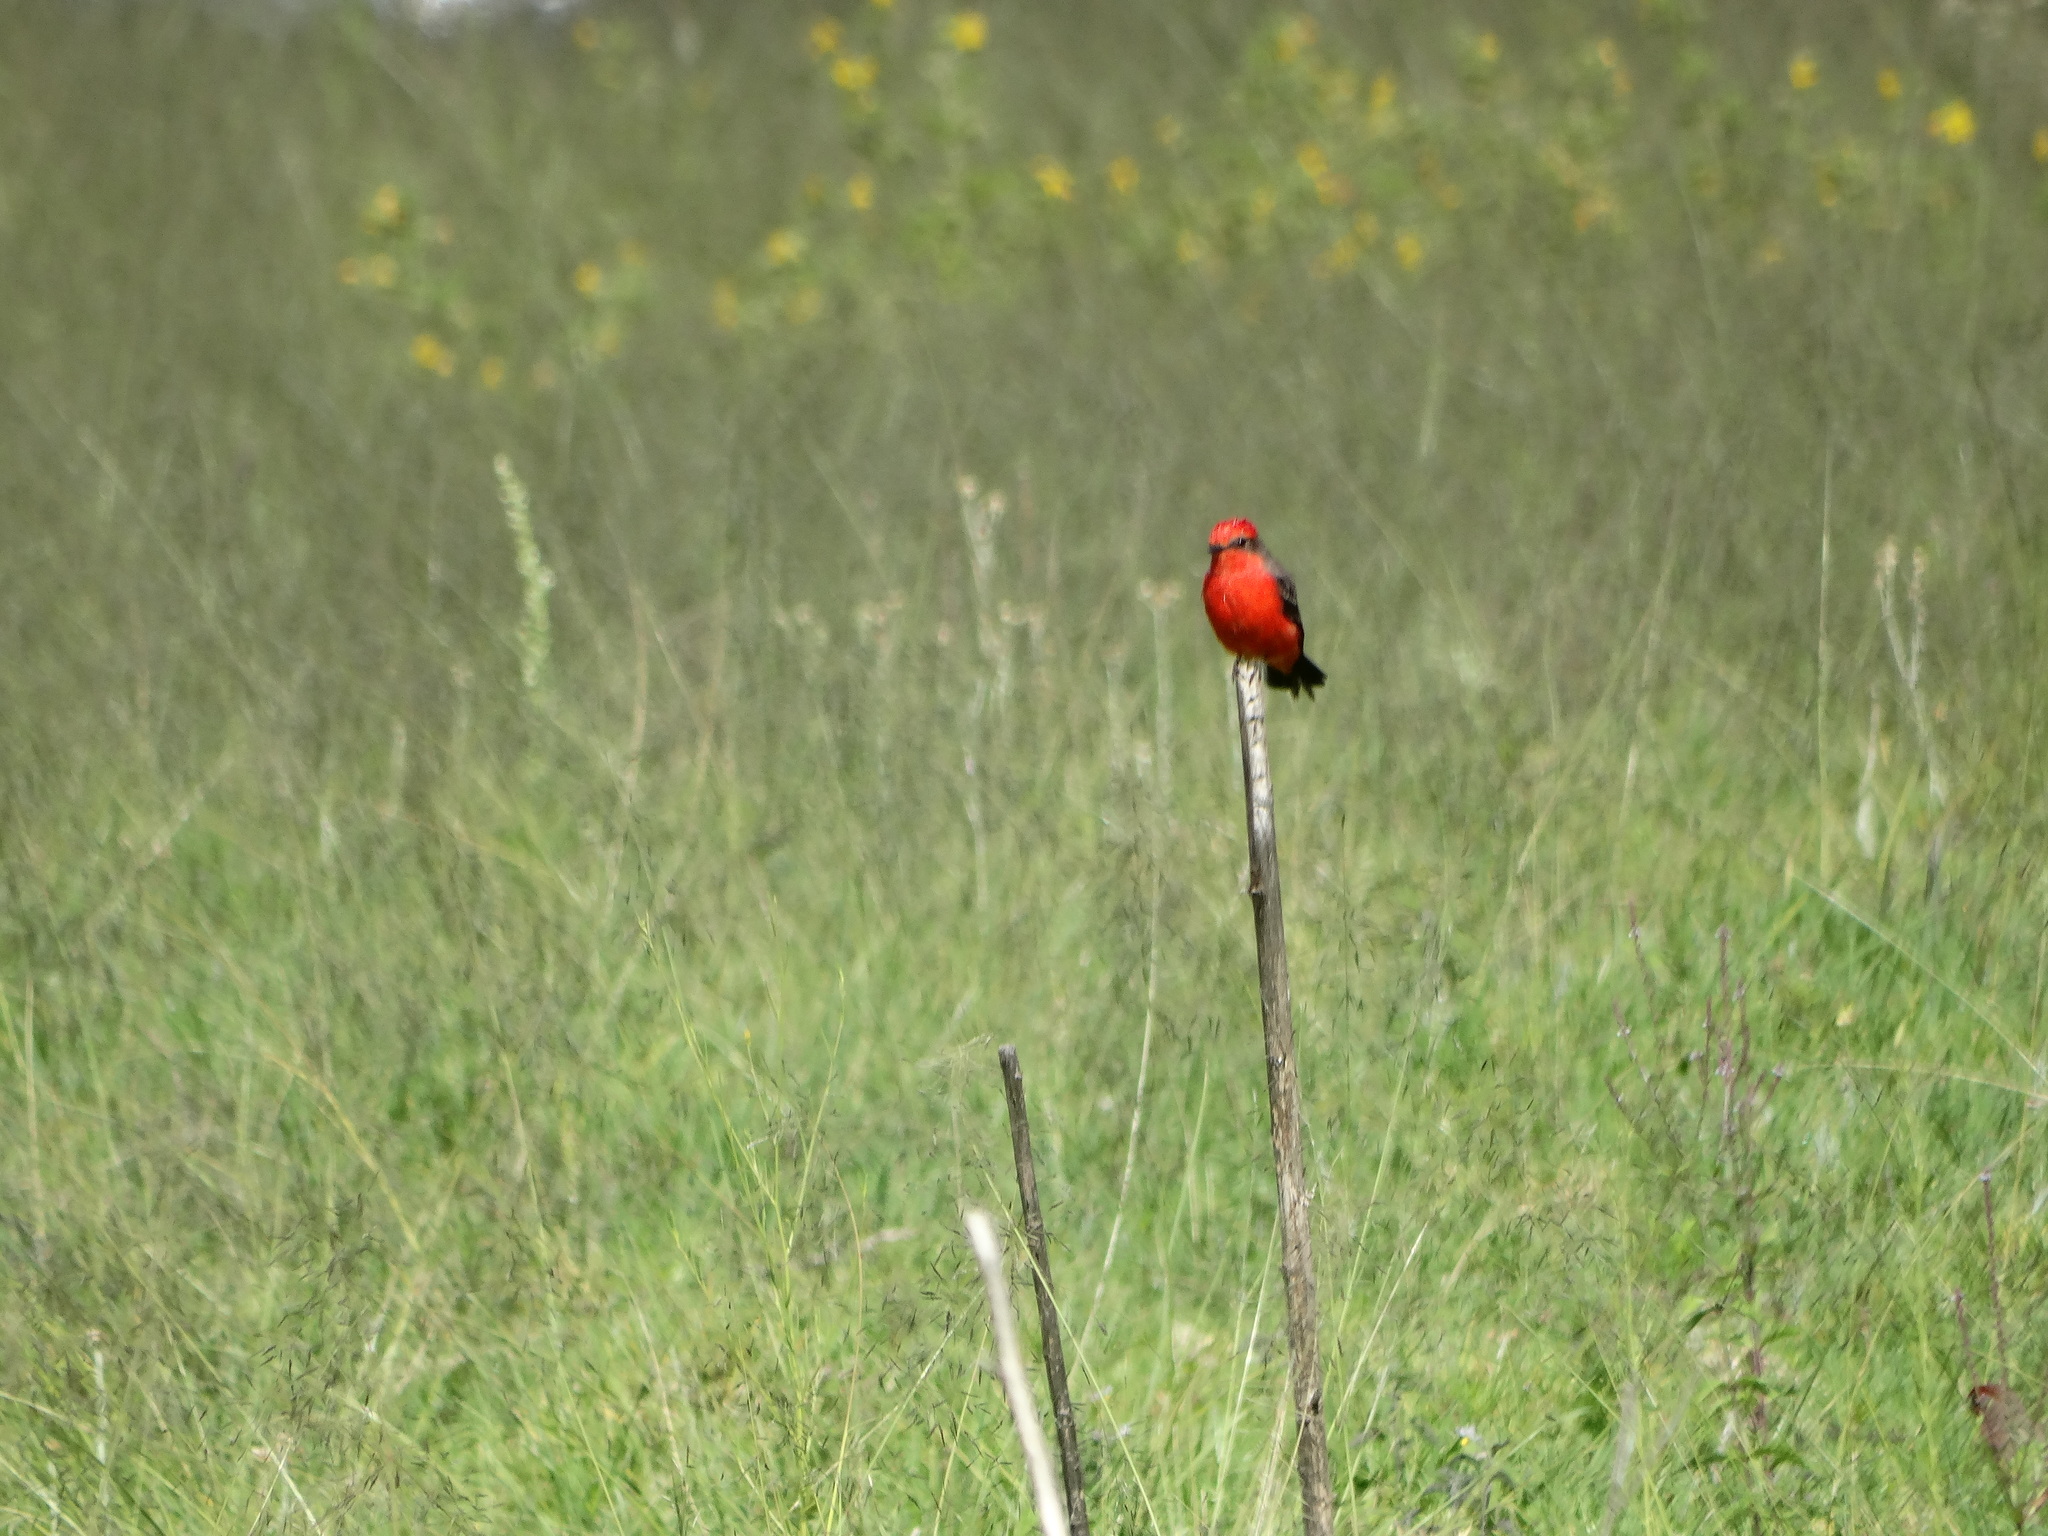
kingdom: Animalia
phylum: Chordata
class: Aves
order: Passeriformes
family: Tyrannidae
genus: Pyrocephalus
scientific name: Pyrocephalus rubinus
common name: Vermilion flycatcher
